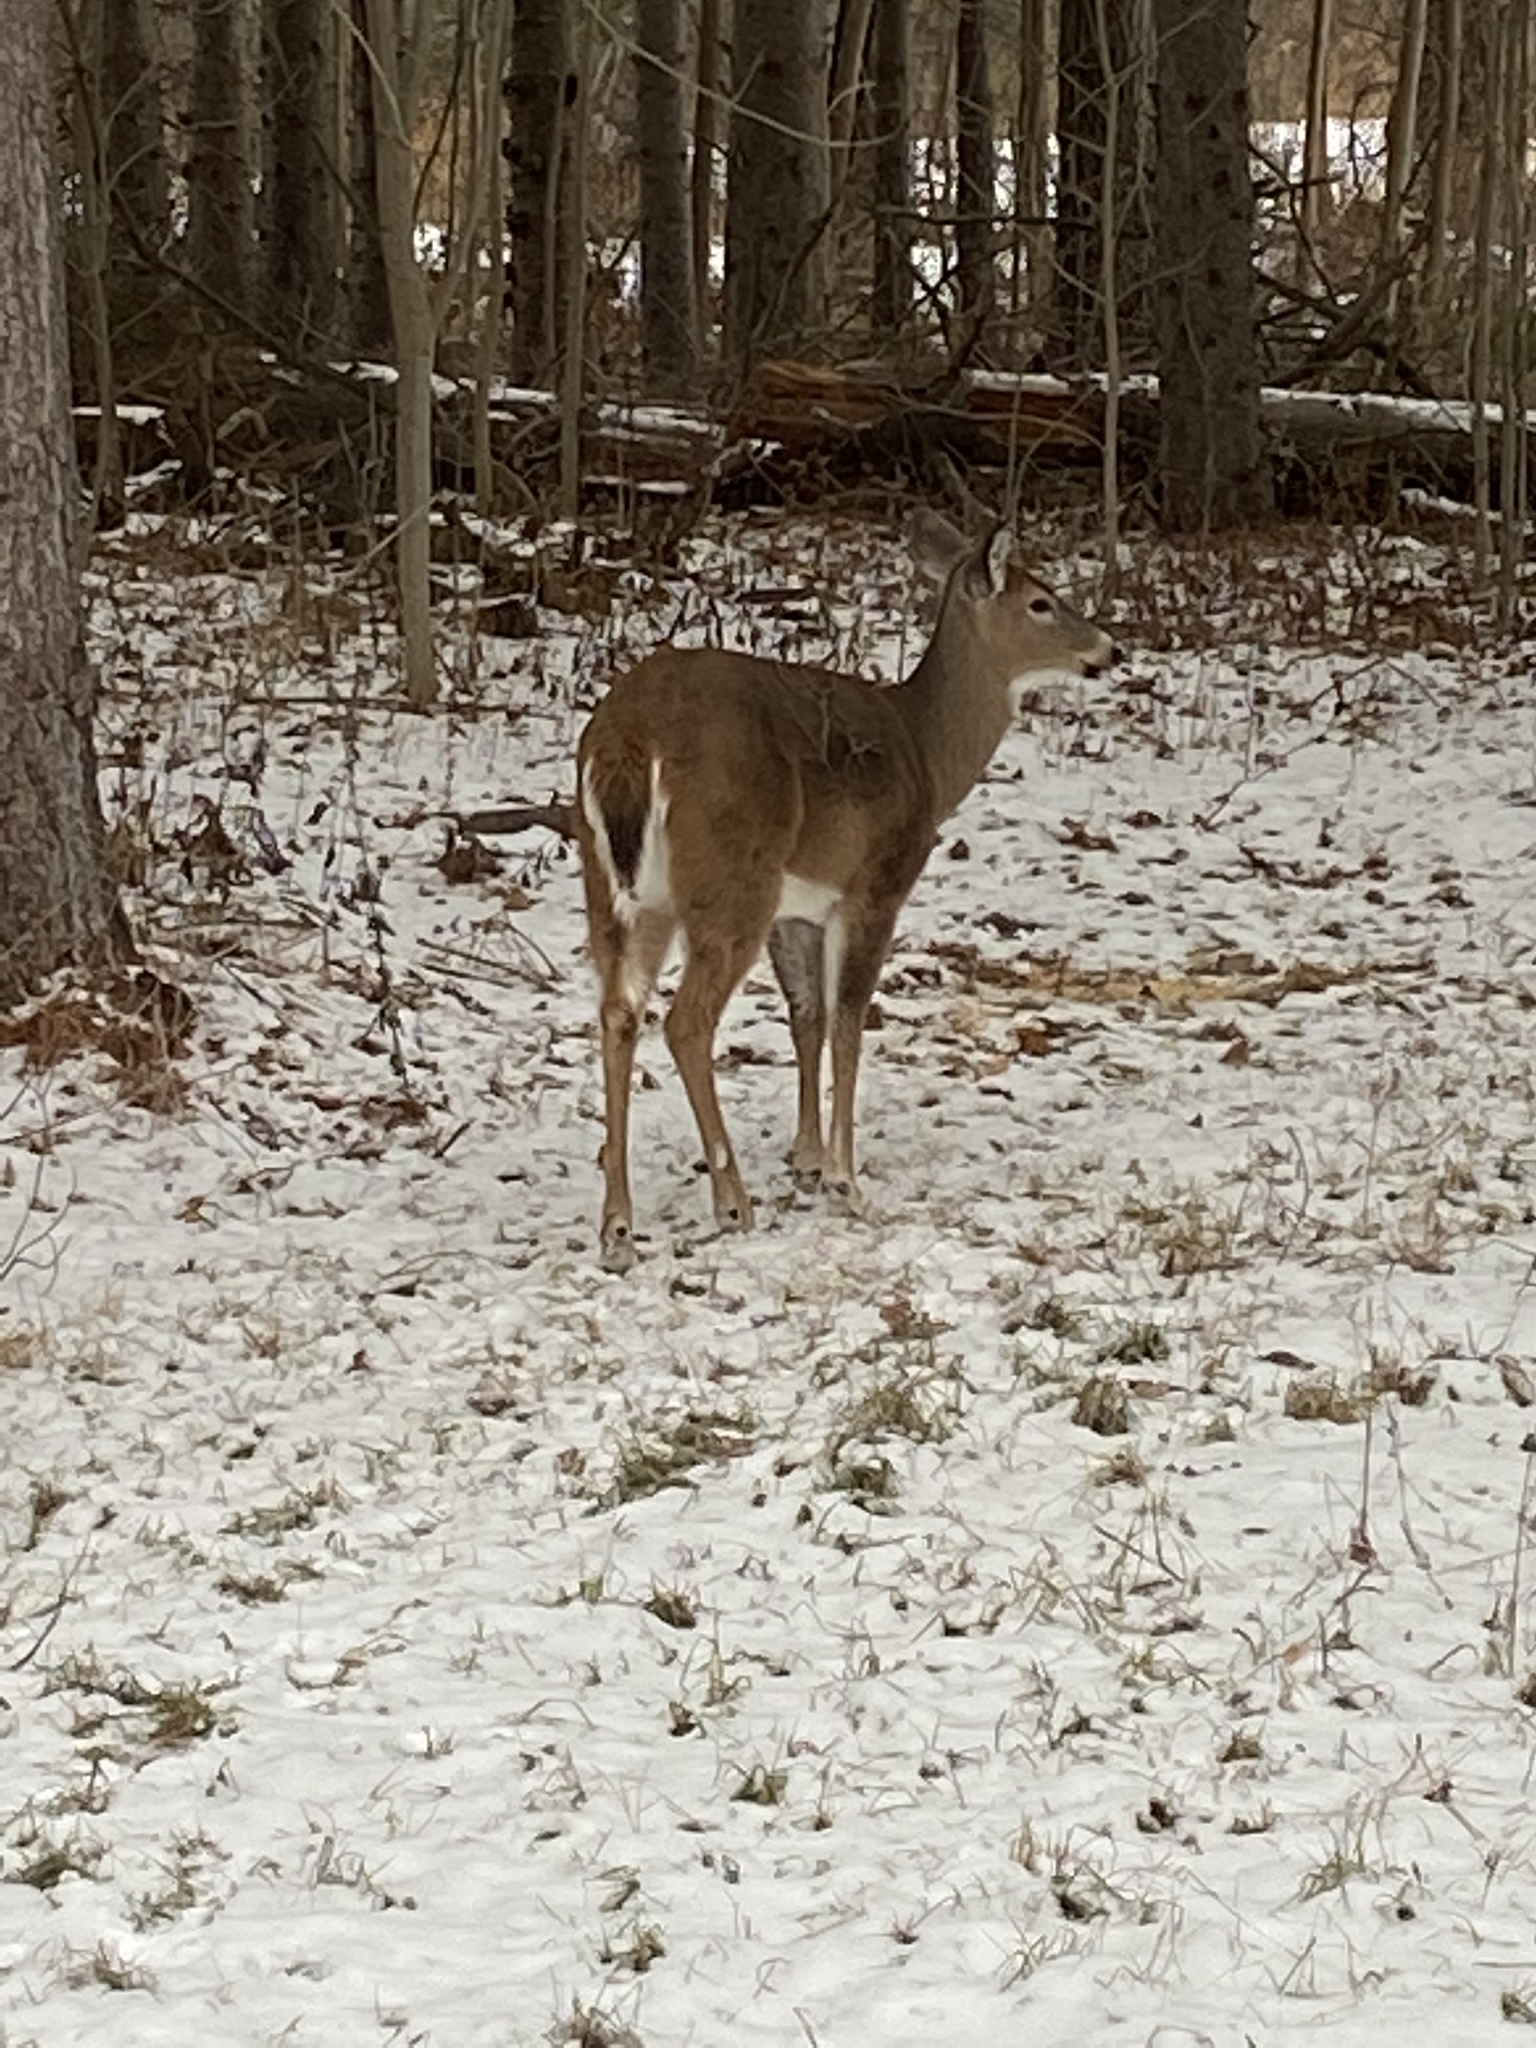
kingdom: Animalia
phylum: Chordata
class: Mammalia
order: Artiodactyla
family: Cervidae
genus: Odocoileus
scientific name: Odocoileus virginianus
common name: White-tailed deer
